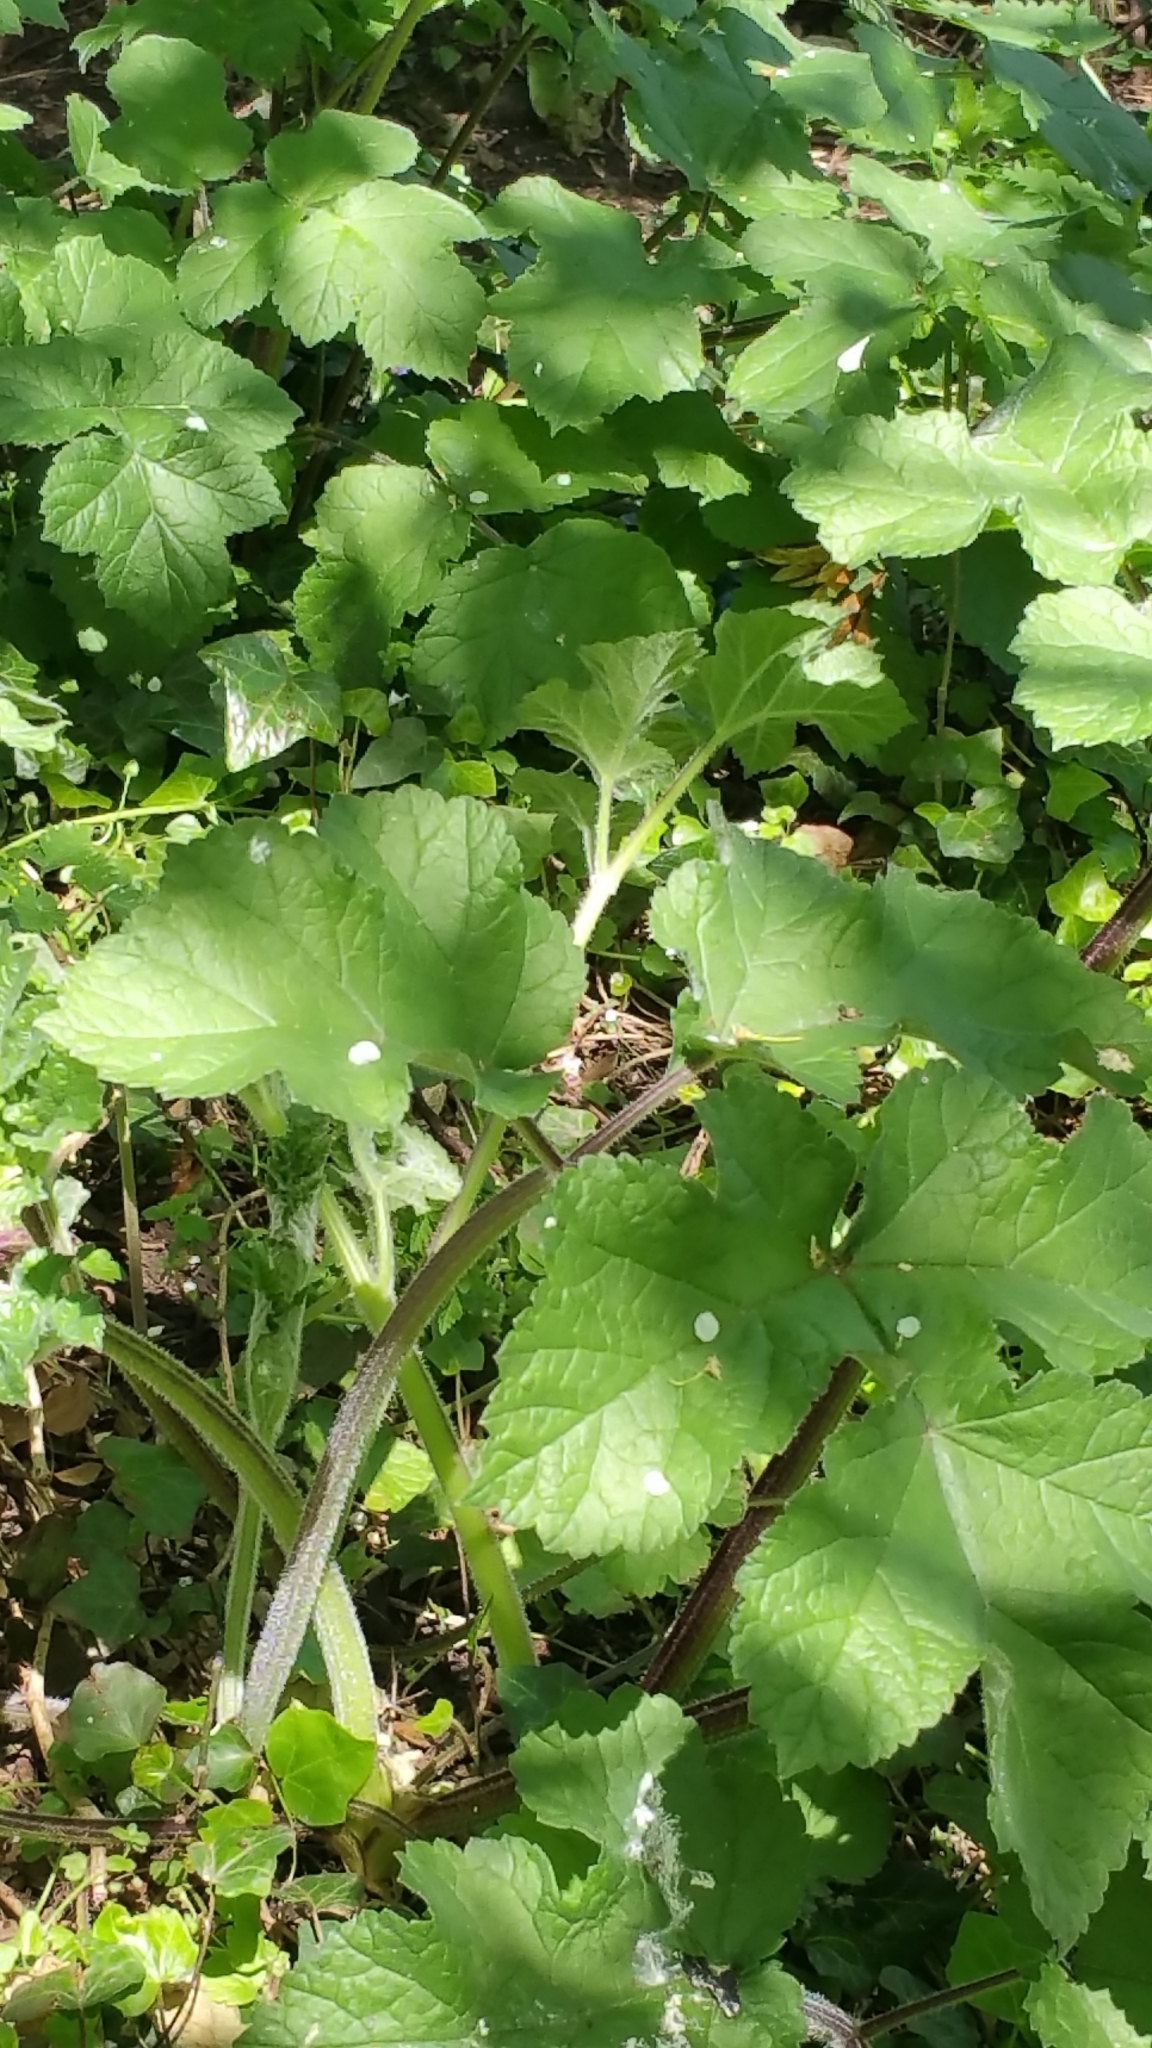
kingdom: Plantae
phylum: Tracheophyta
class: Magnoliopsida
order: Apiales
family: Apiaceae
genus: Heracleum
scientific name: Heracleum sphondylium
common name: Hogweed
